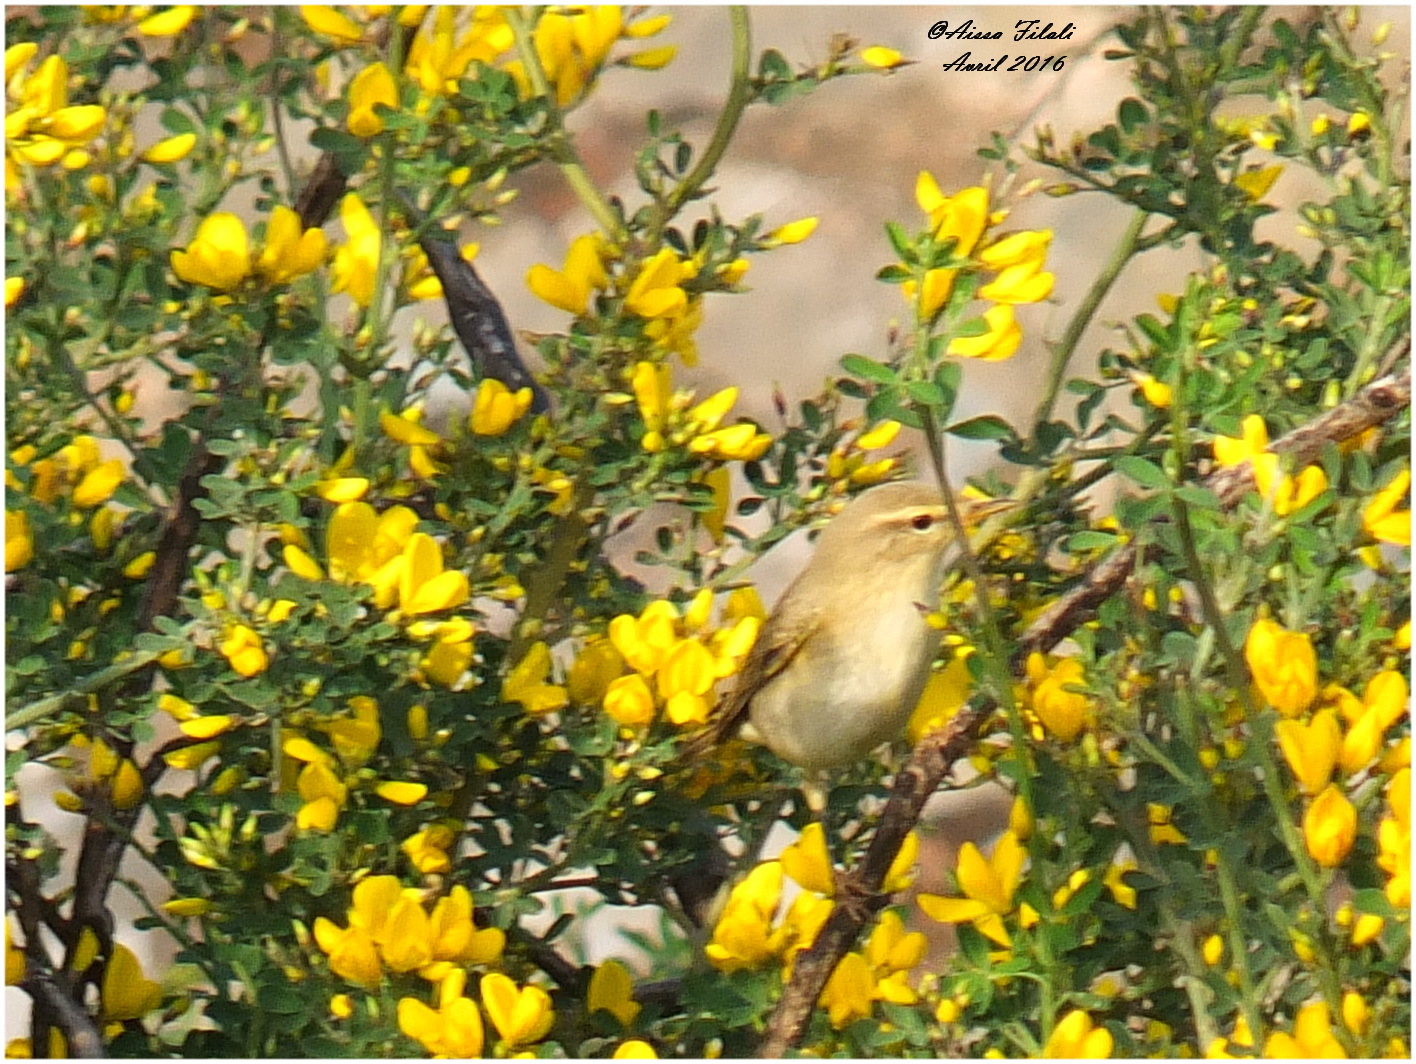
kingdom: Animalia
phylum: Chordata
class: Aves
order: Passeriformes
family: Phylloscopidae
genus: Phylloscopus
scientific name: Phylloscopus collybita
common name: Common chiffchaff
